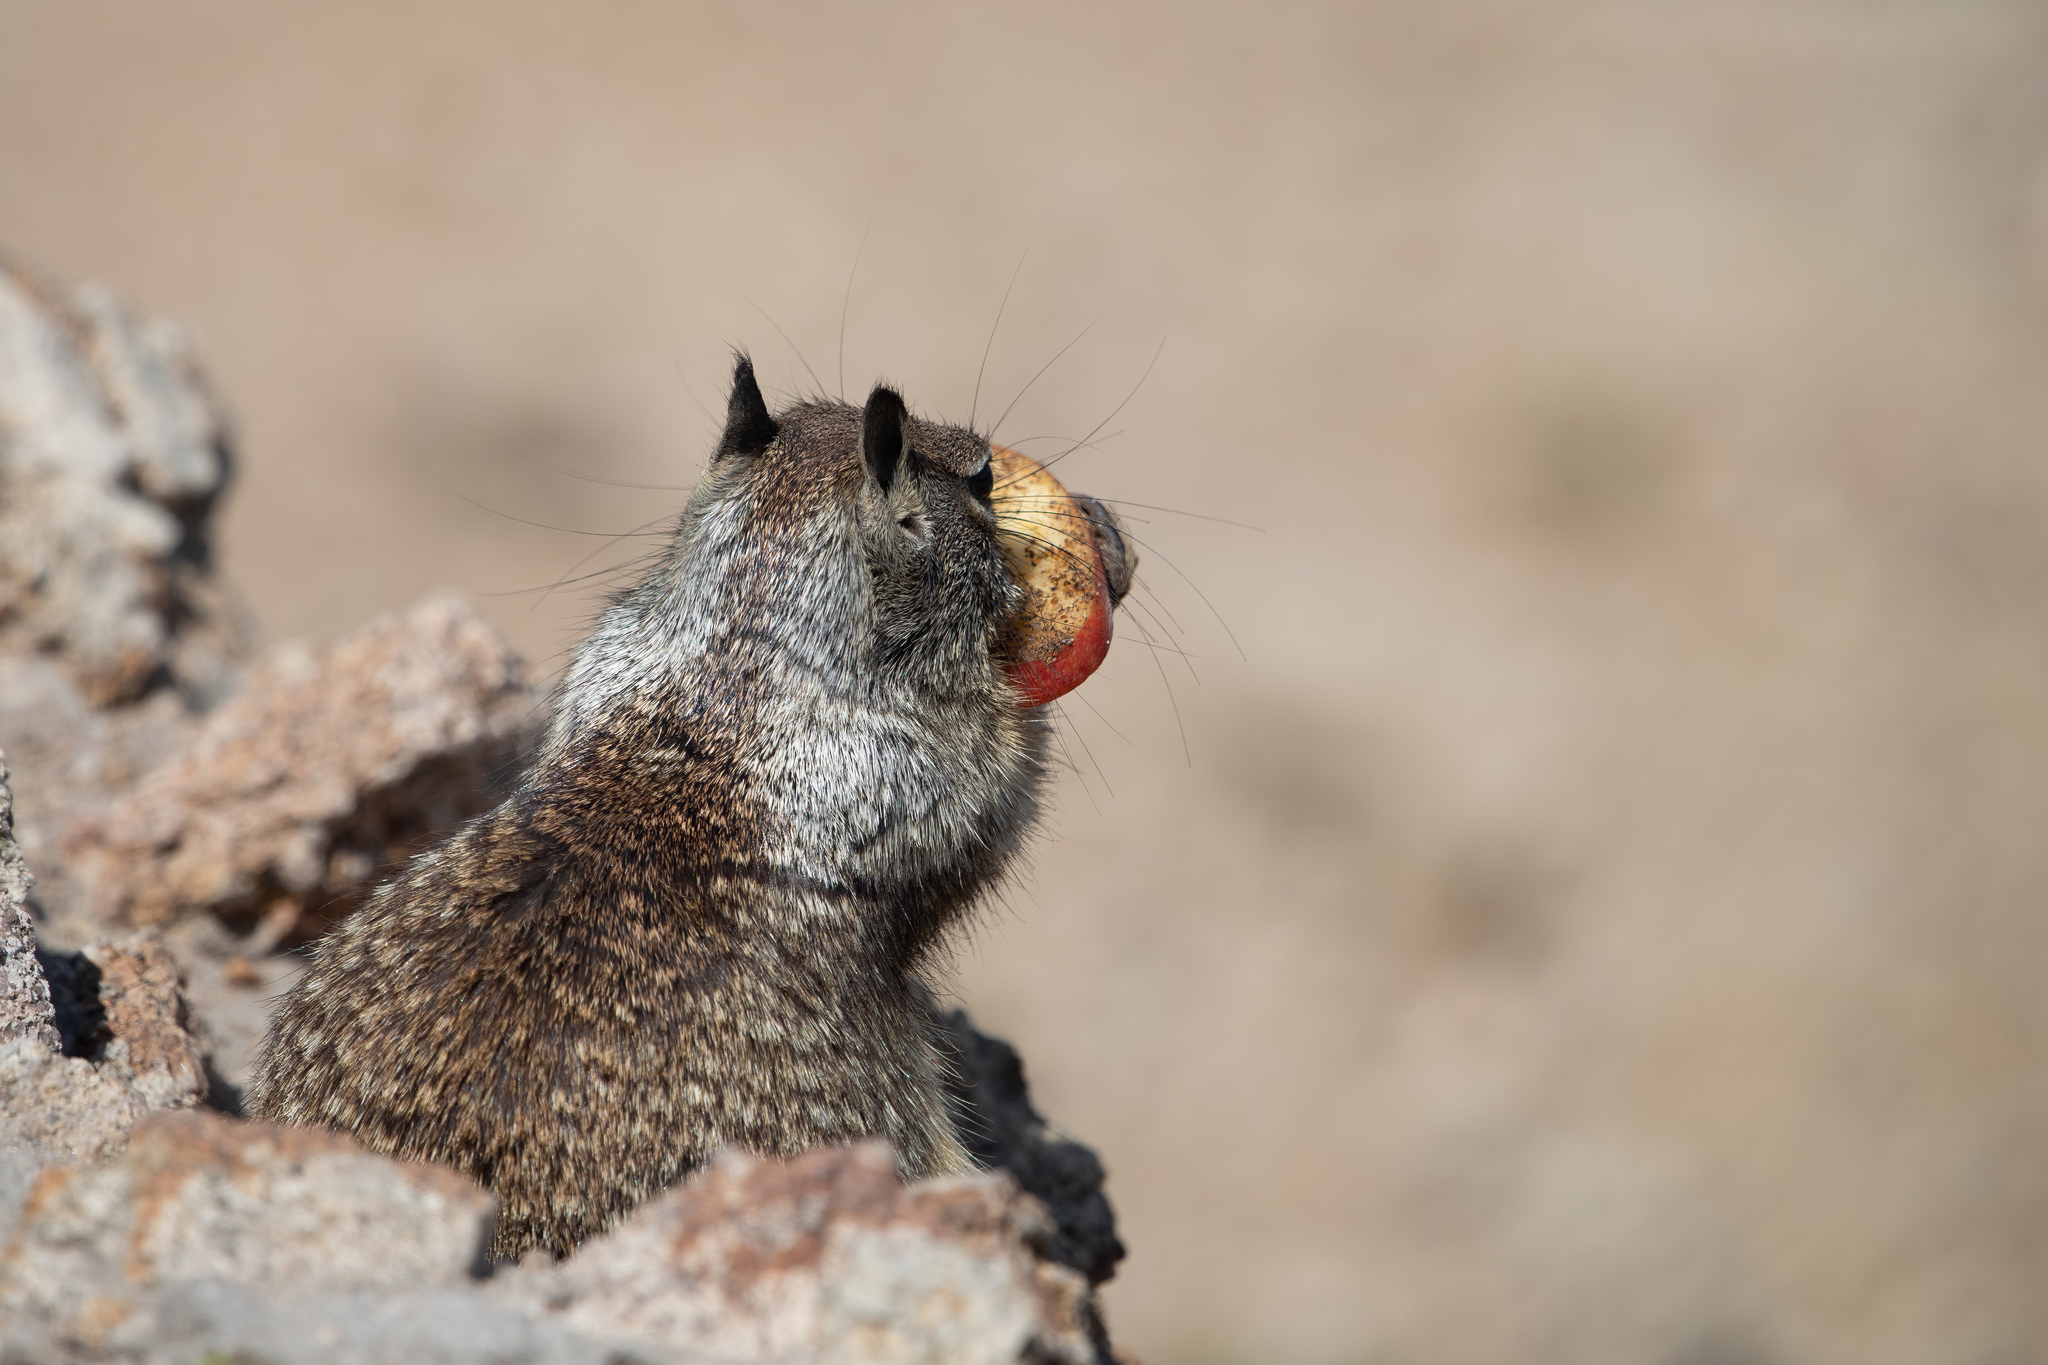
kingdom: Animalia
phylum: Chordata
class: Mammalia
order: Rodentia
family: Sciuridae
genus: Otospermophilus
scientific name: Otospermophilus beecheyi
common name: California ground squirrel
